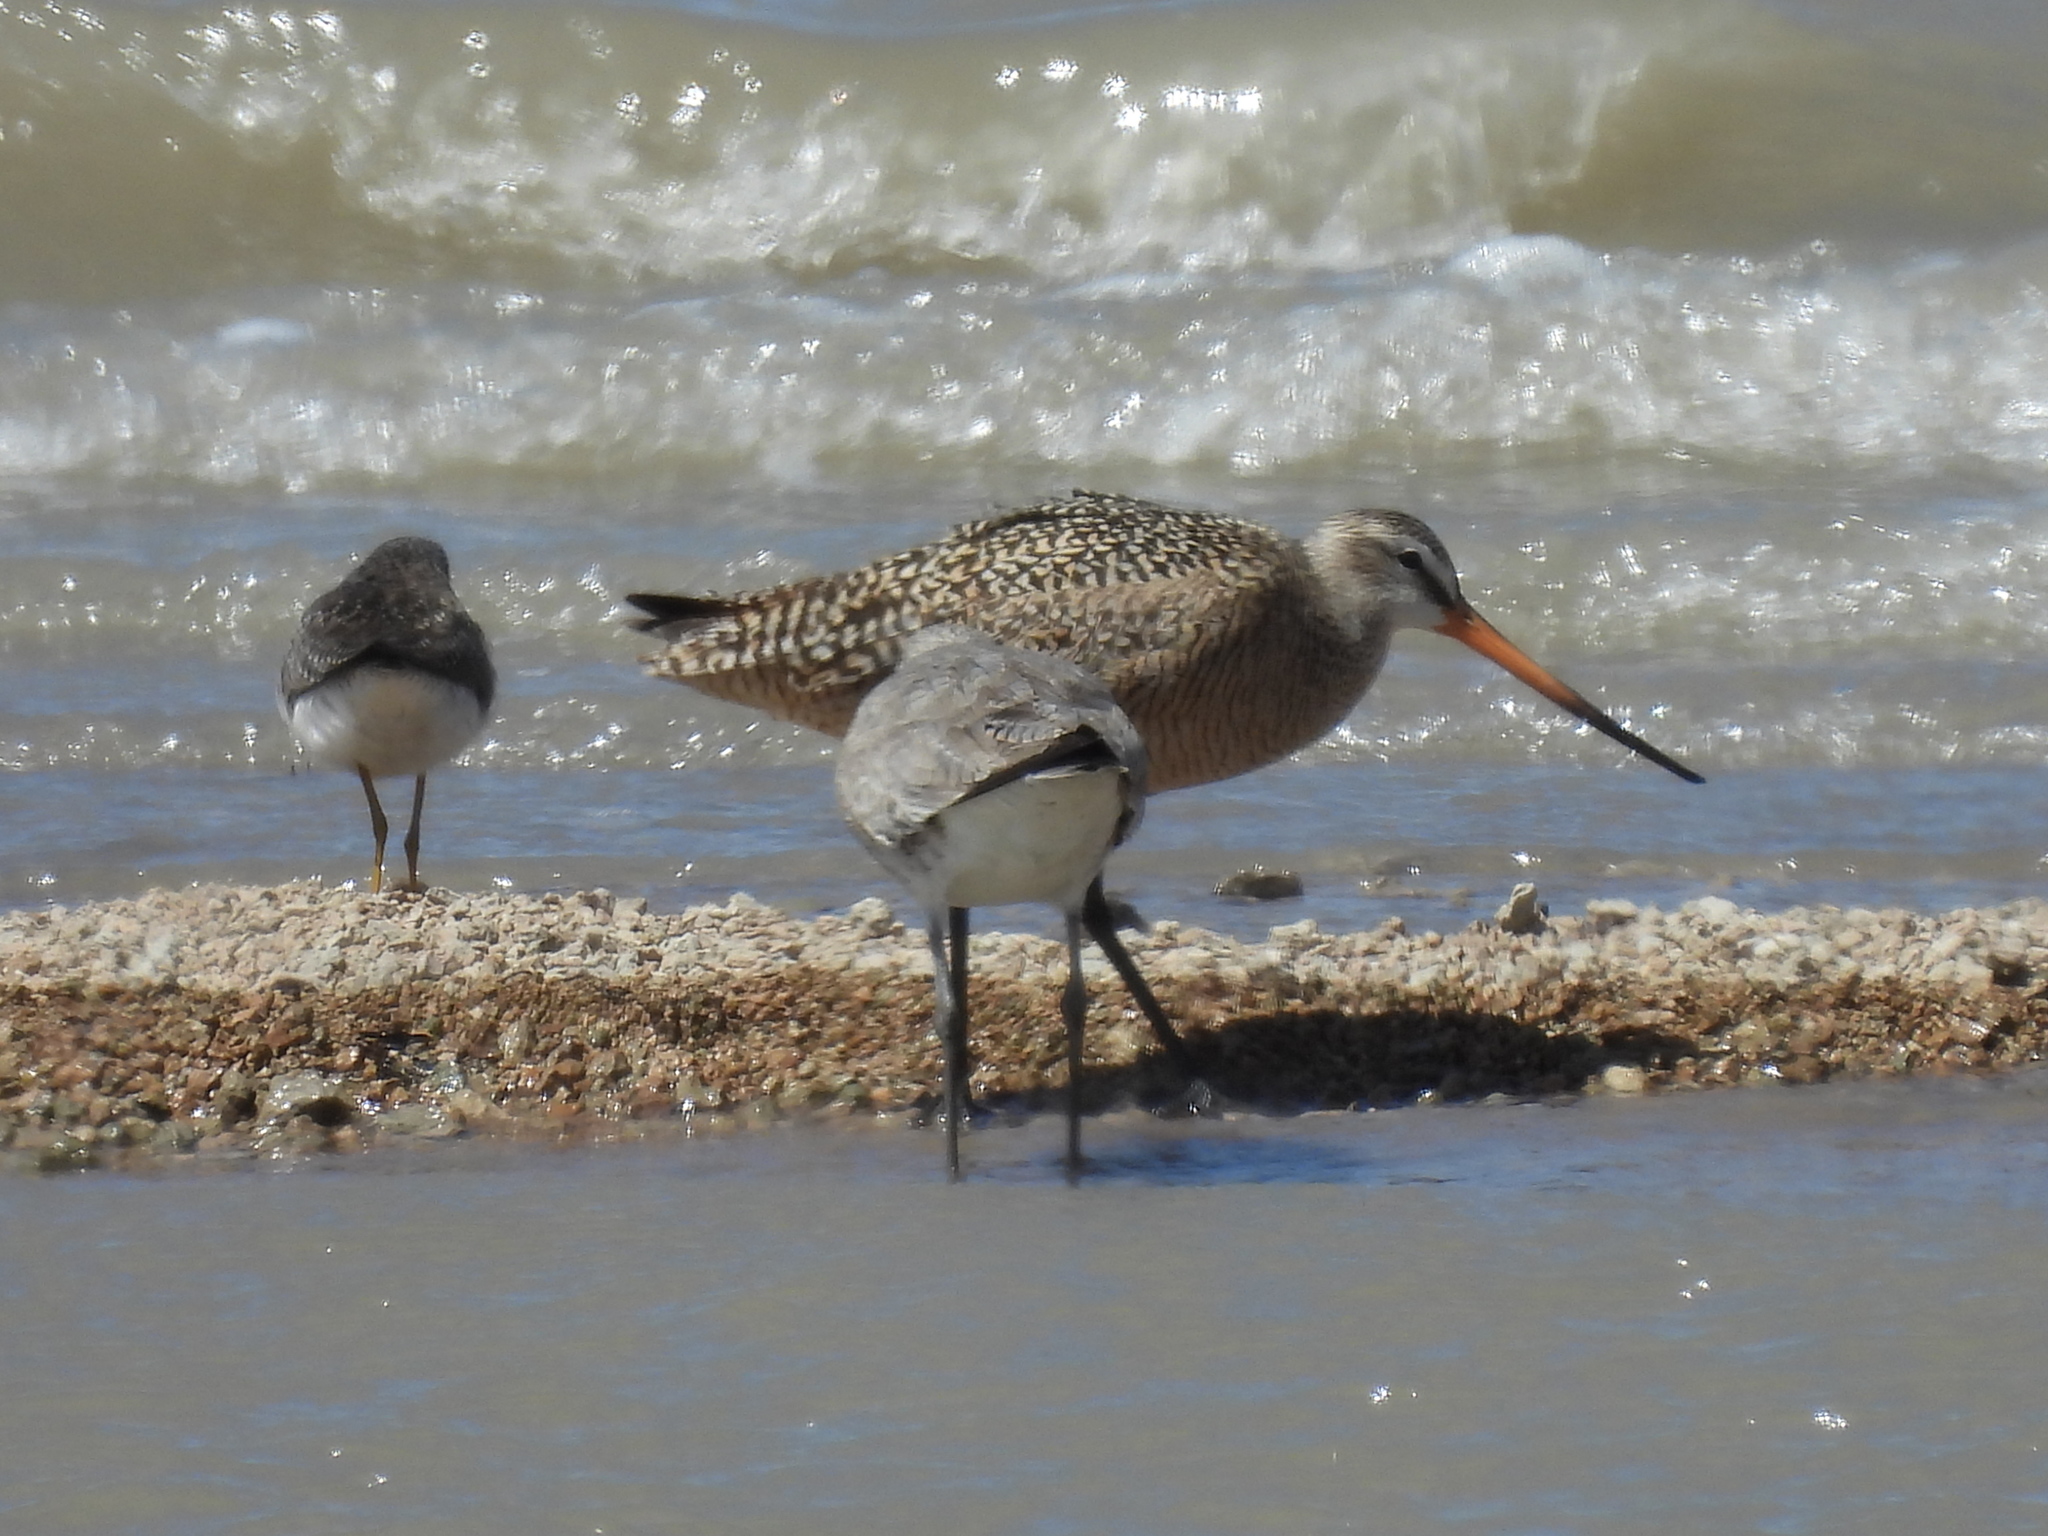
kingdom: Animalia
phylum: Chordata
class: Aves
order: Charadriiformes
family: Scolopacidae
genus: Limosa
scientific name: Limosa fedoa
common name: Marbled godwit
